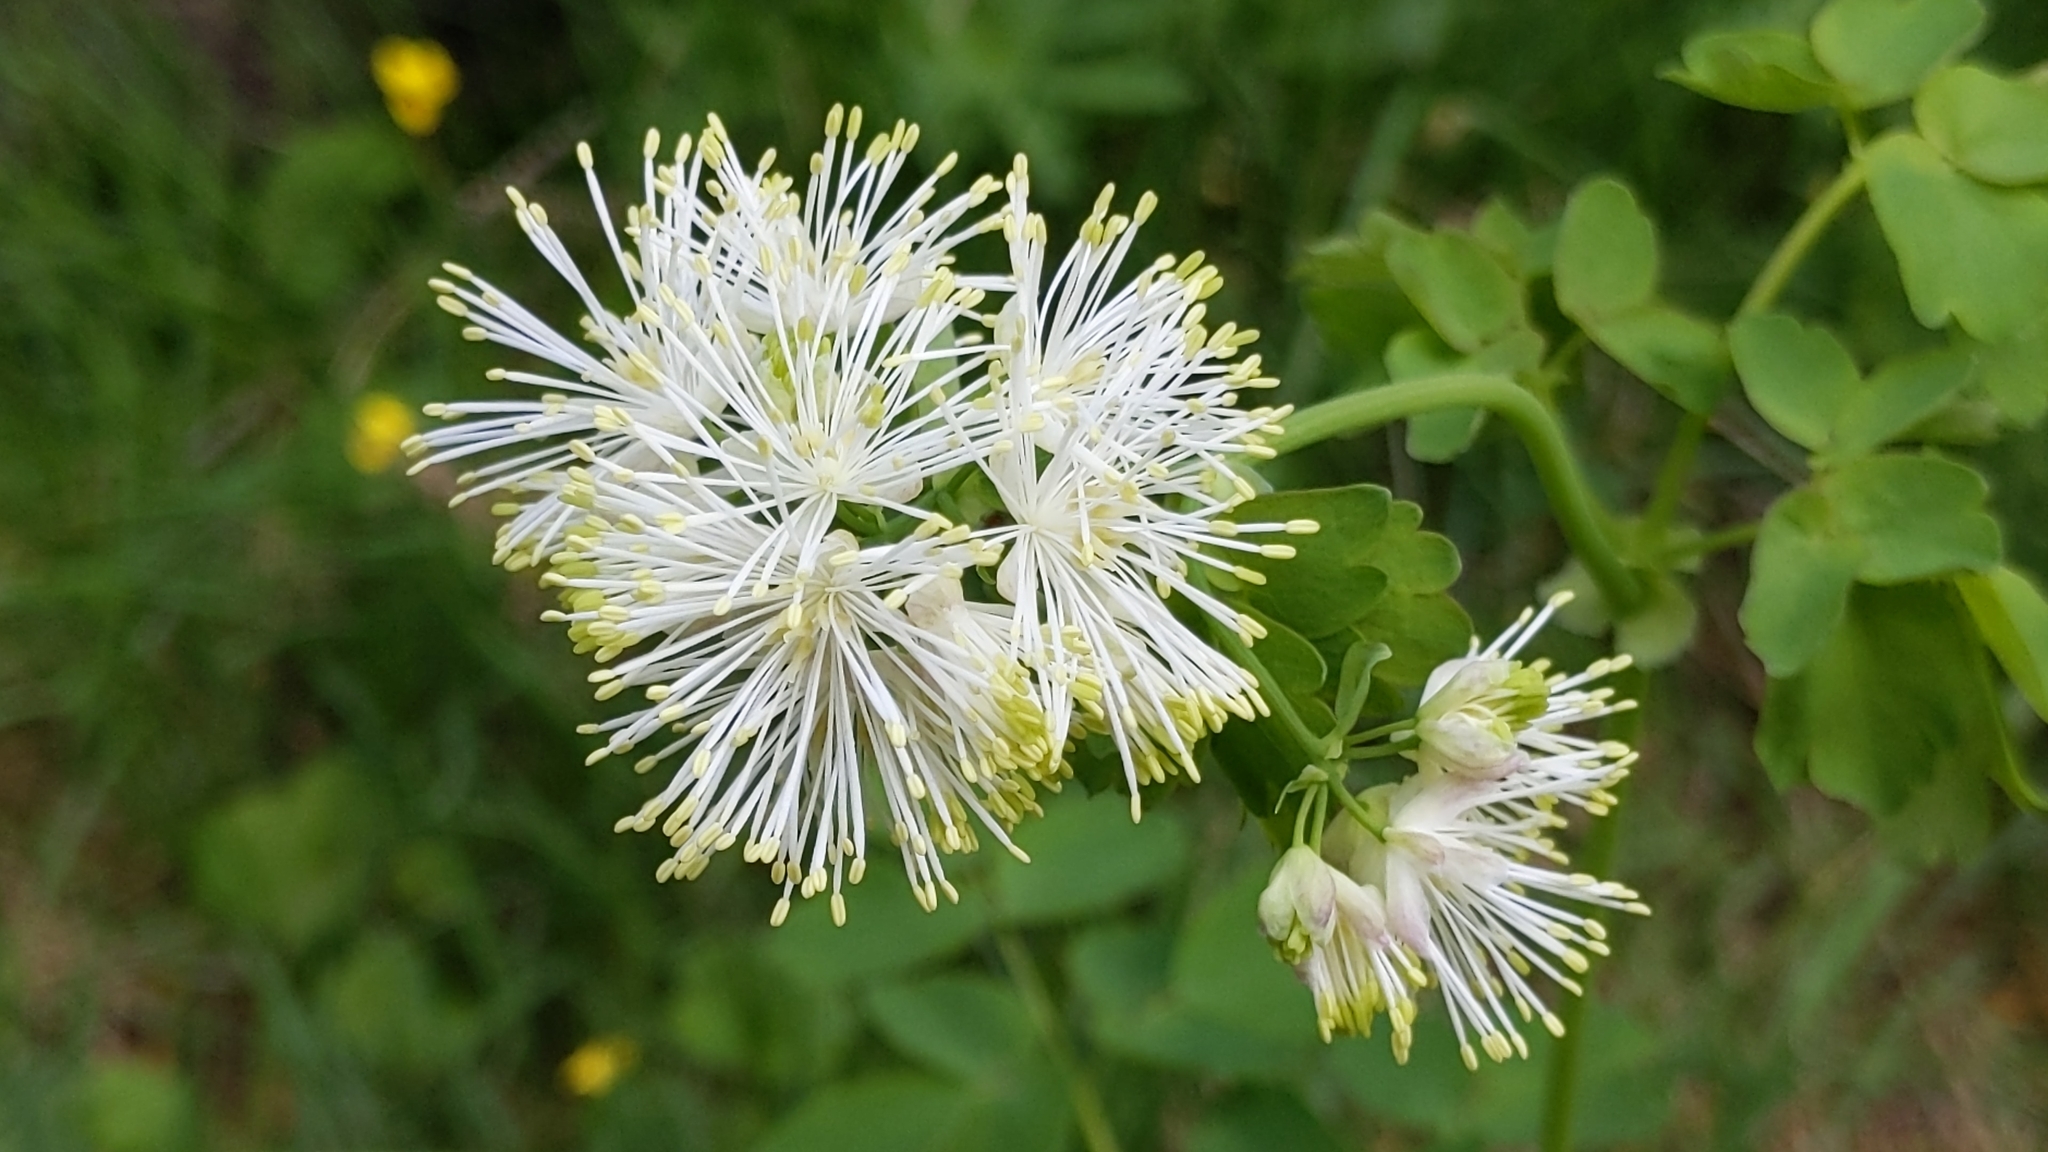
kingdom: Plantae
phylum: Tracheophyta
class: Magnoliopsida
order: Ranunculales
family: Ranunculaceae
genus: Thalictrum
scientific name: Thalictrum aquilegiifolium
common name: French meadow-rue
